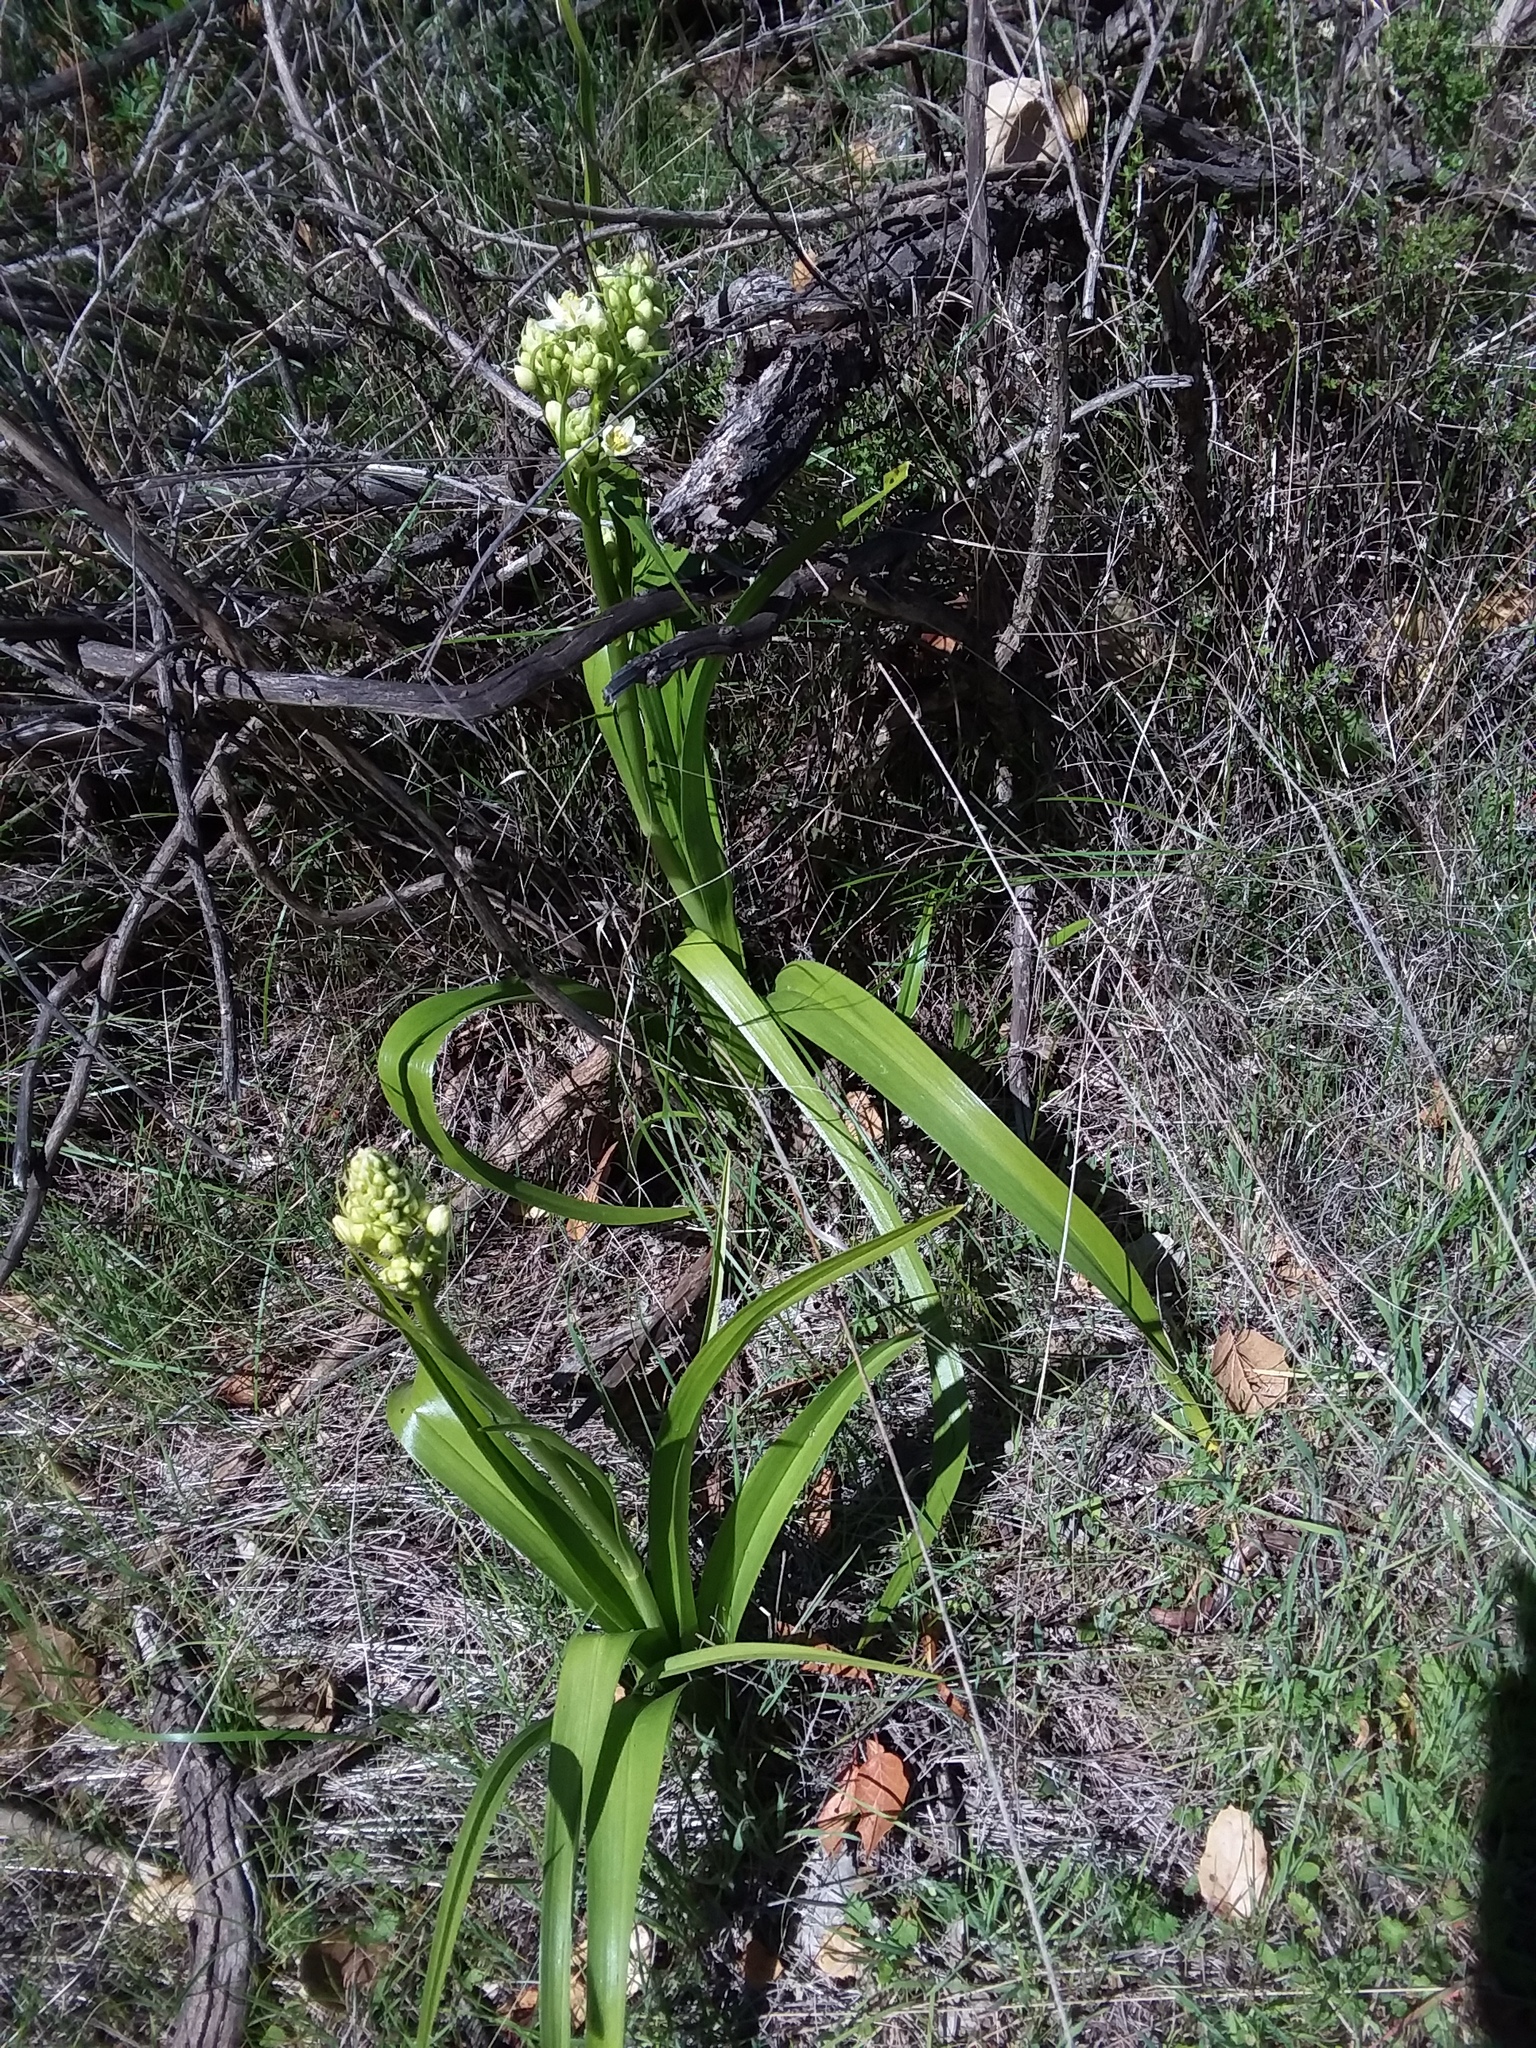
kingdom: Plantae
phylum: Tracheophyta
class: Liliopsida
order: Liliales
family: Melanthiaceae
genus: Toxicoscordion
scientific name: Toxicoscordion fremontii
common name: Fremont's death camas
